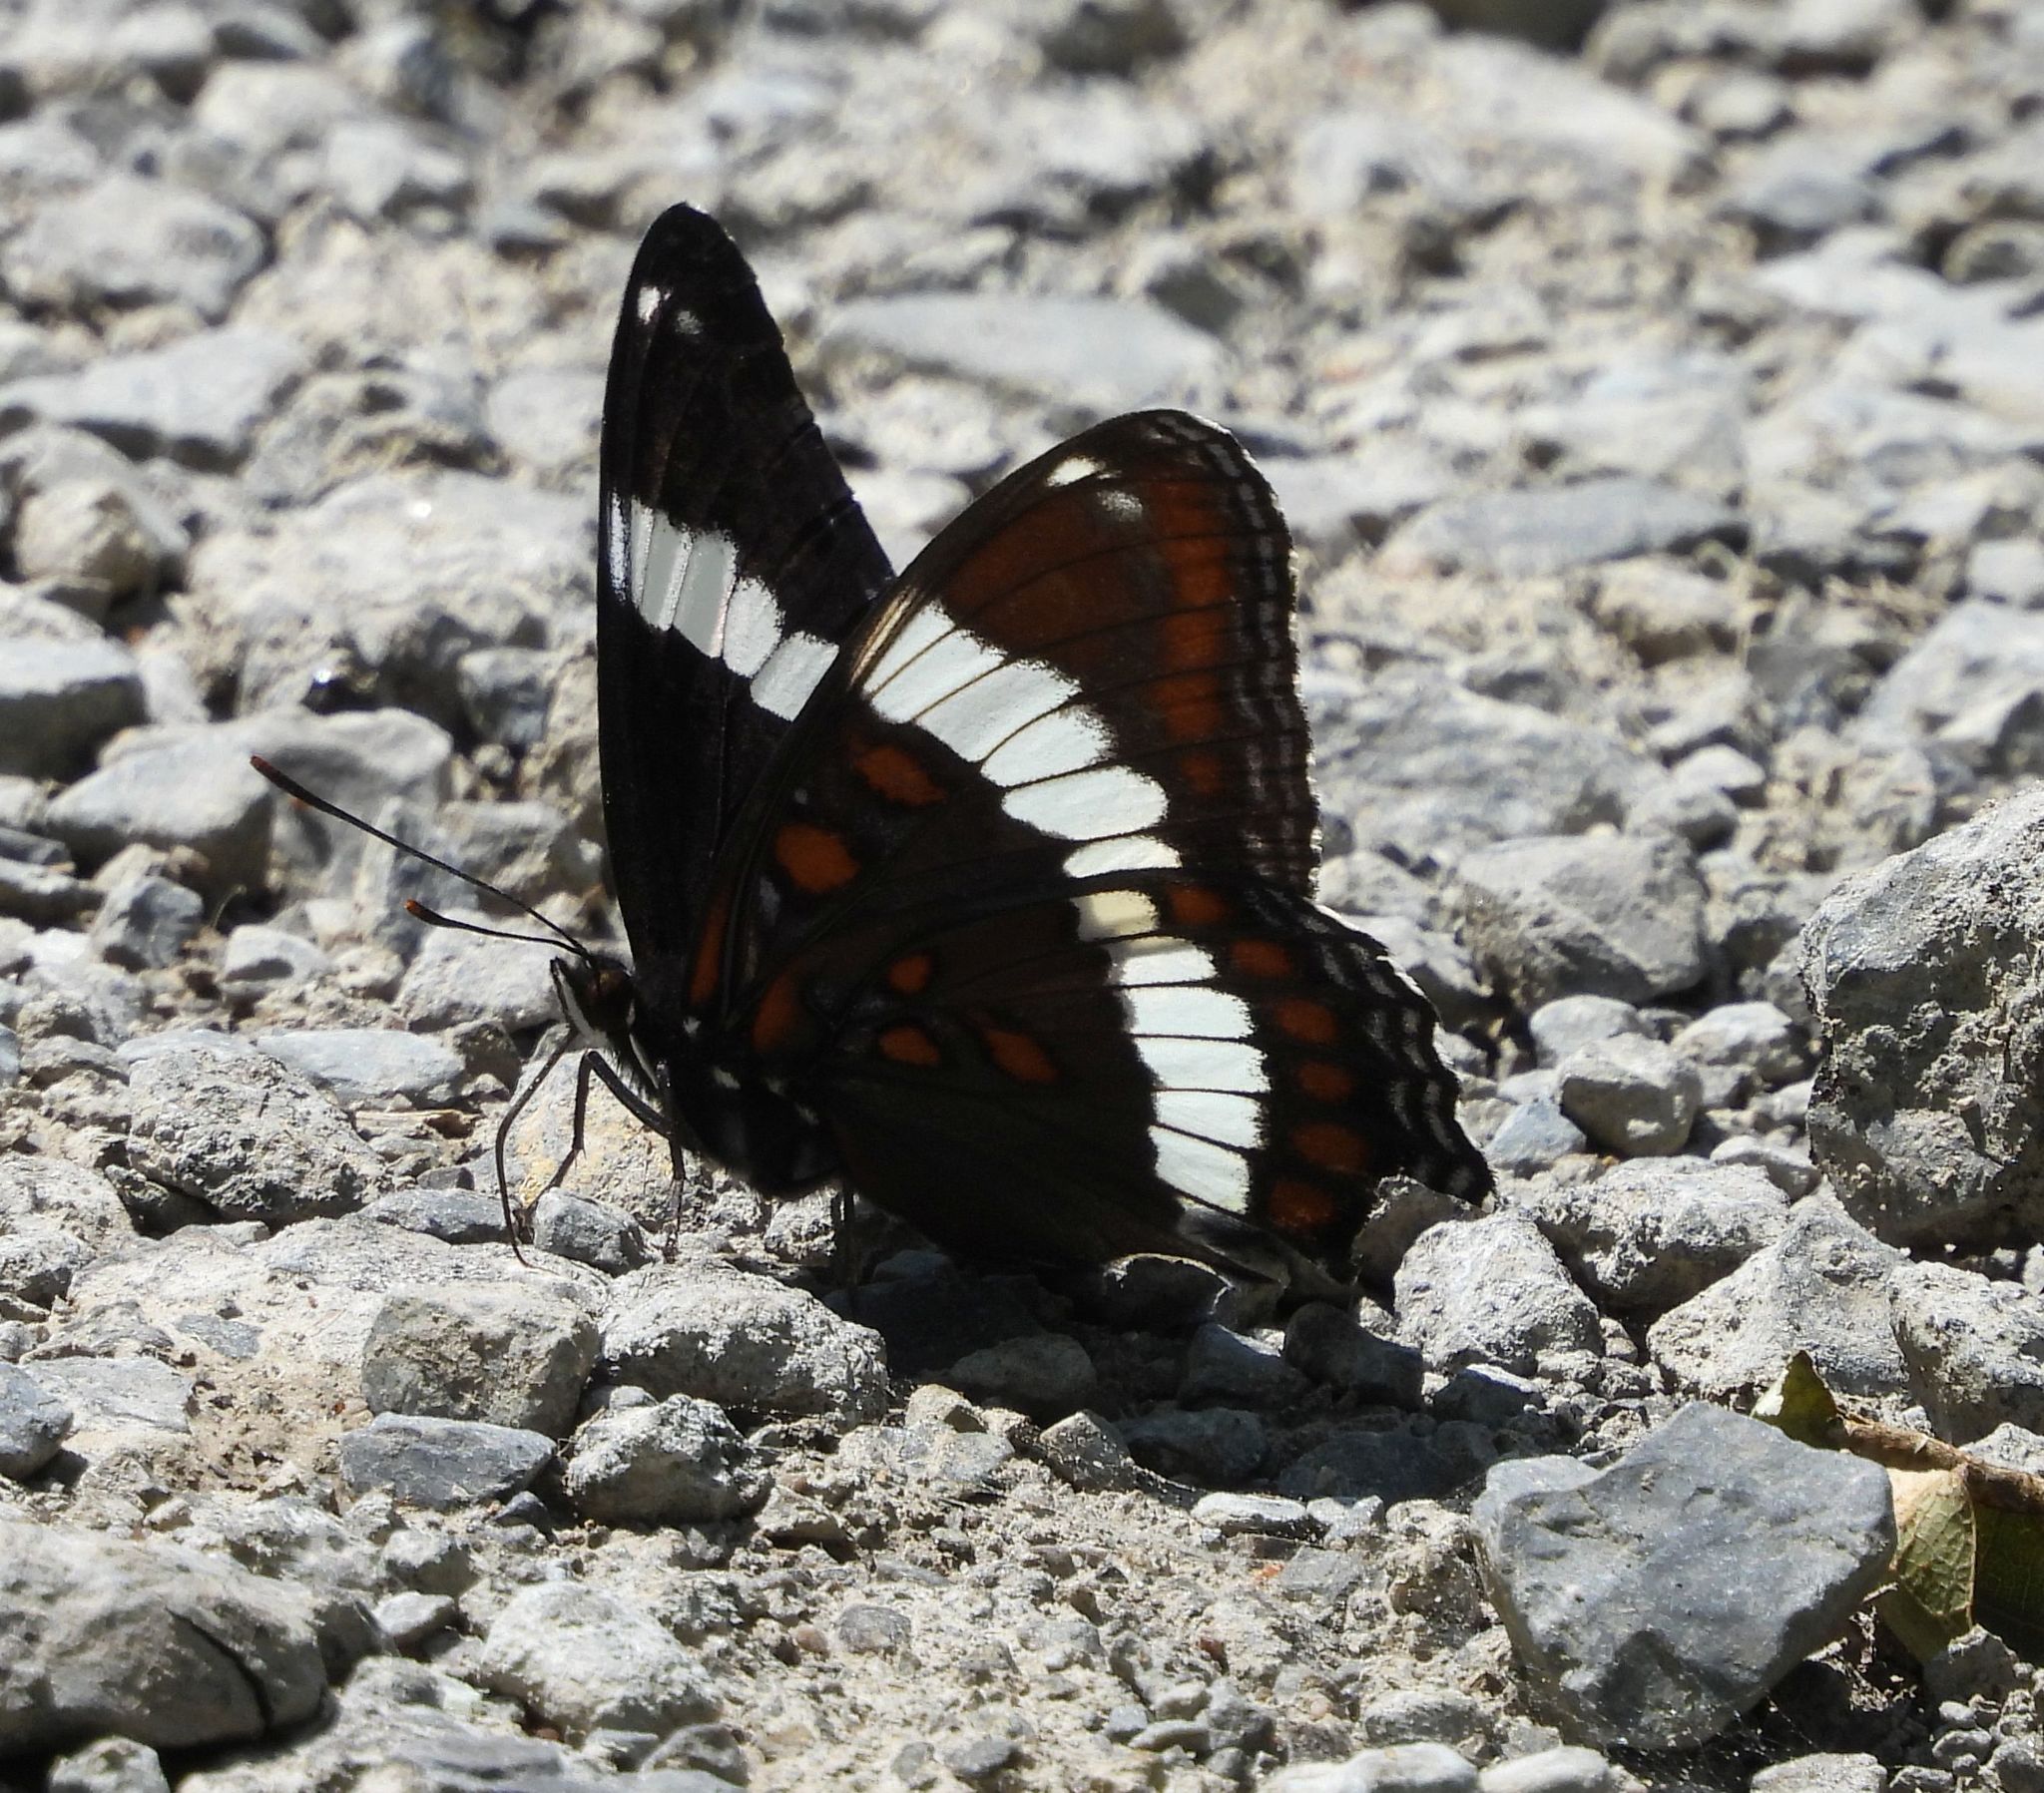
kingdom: Animalia
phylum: Arthropoda
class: Insecta
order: Lepidoptera
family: Nymphalidae
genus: Limenitis
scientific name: Limenitis arthemis
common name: Red-spotted admiral
